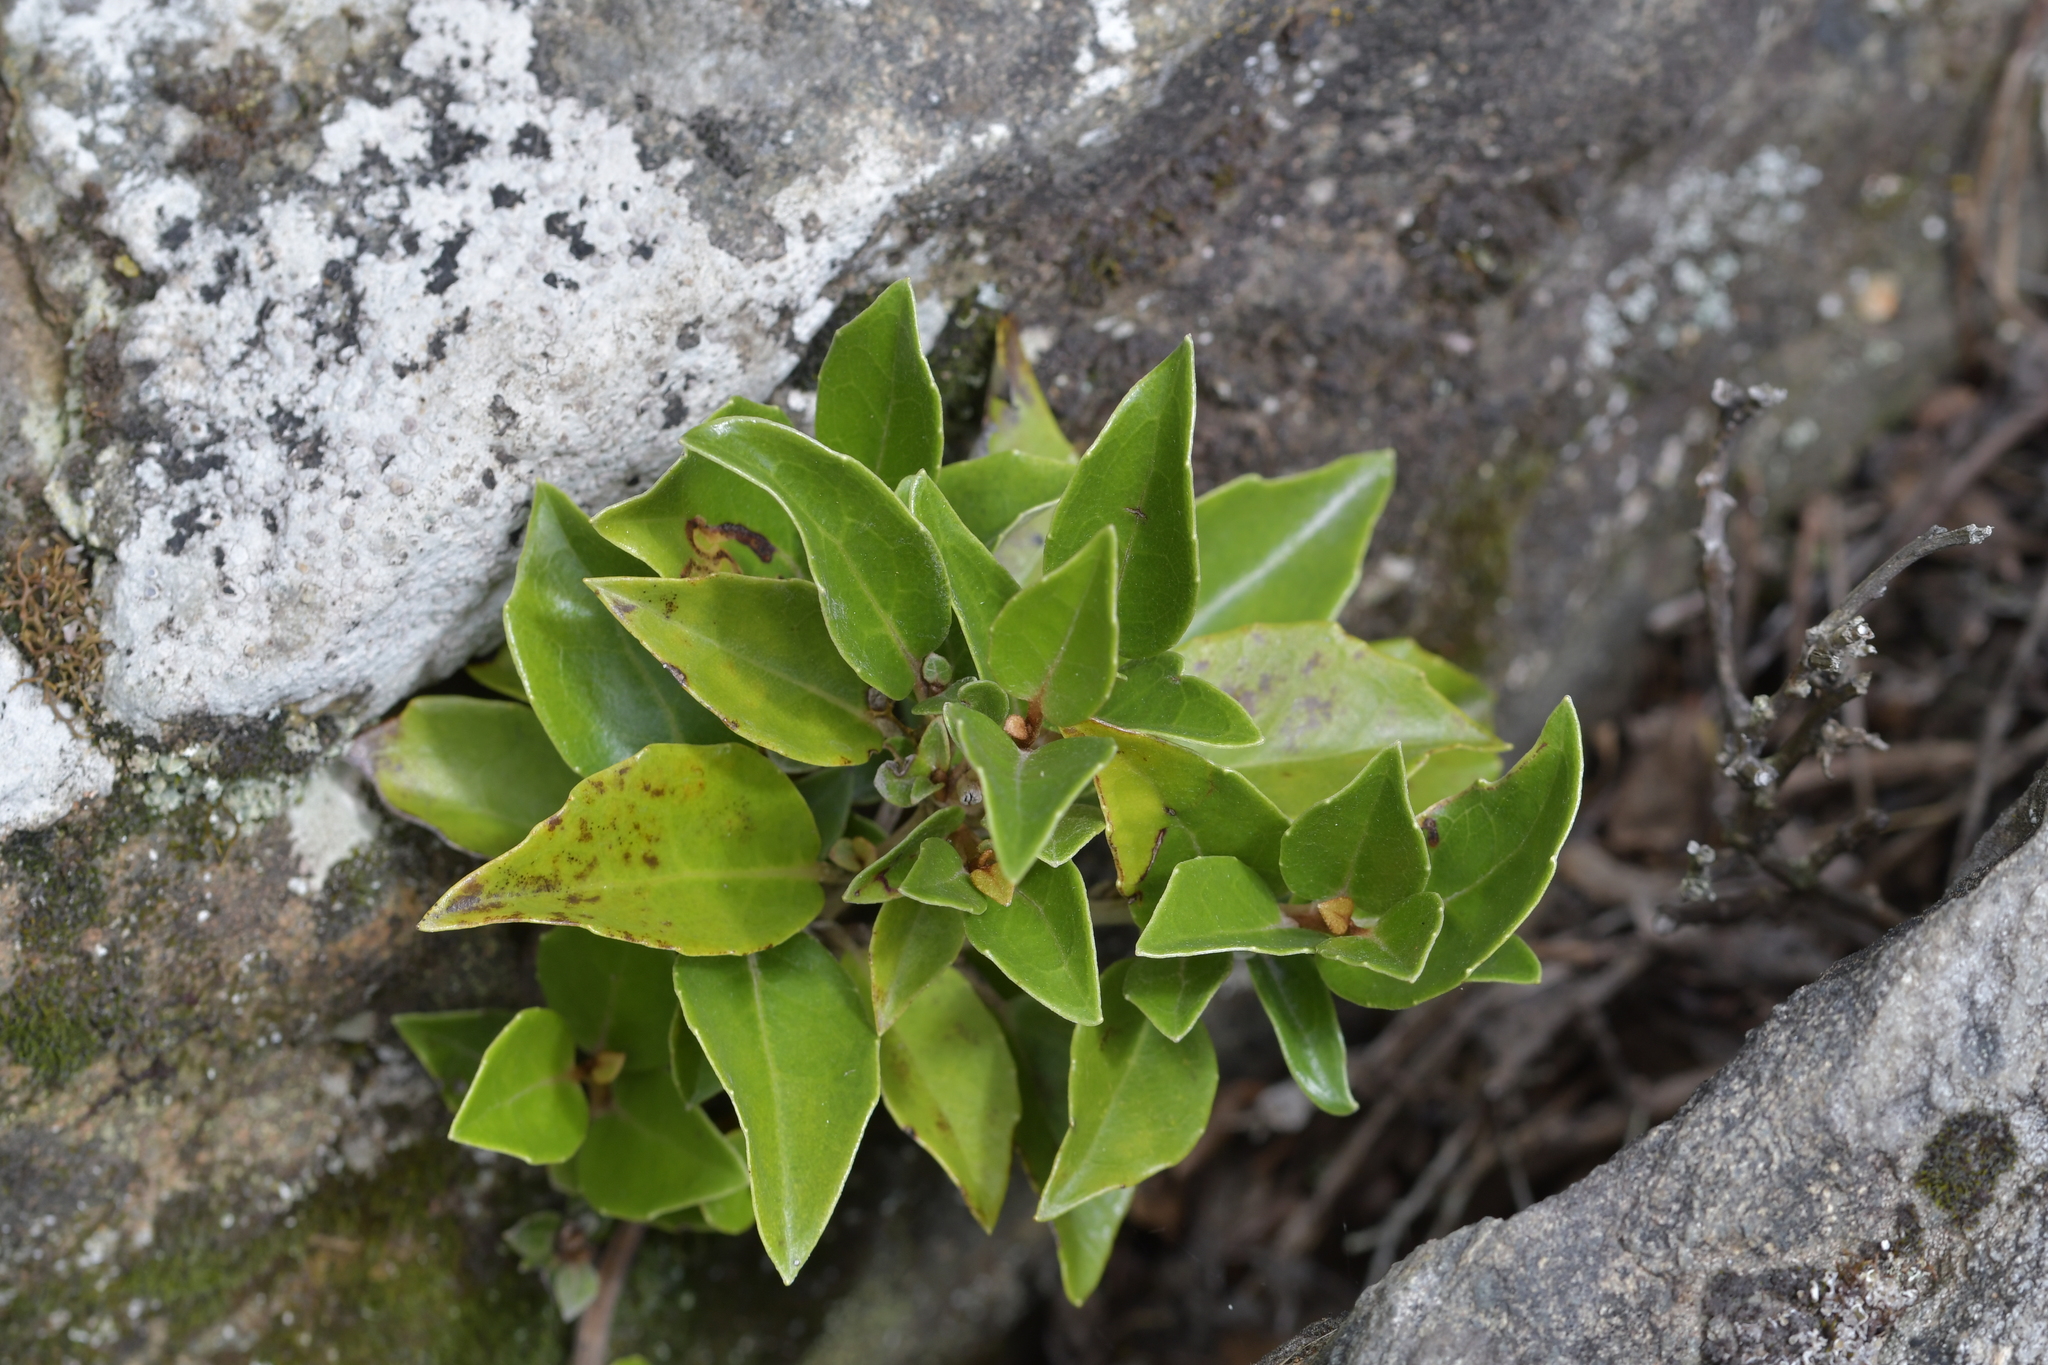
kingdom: Plantae
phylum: Tracheophyta
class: Magnoliopsida
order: Asterales
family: Asteraceae
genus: Olearia
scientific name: Olearia arborescens
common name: Glossy tree daisy
